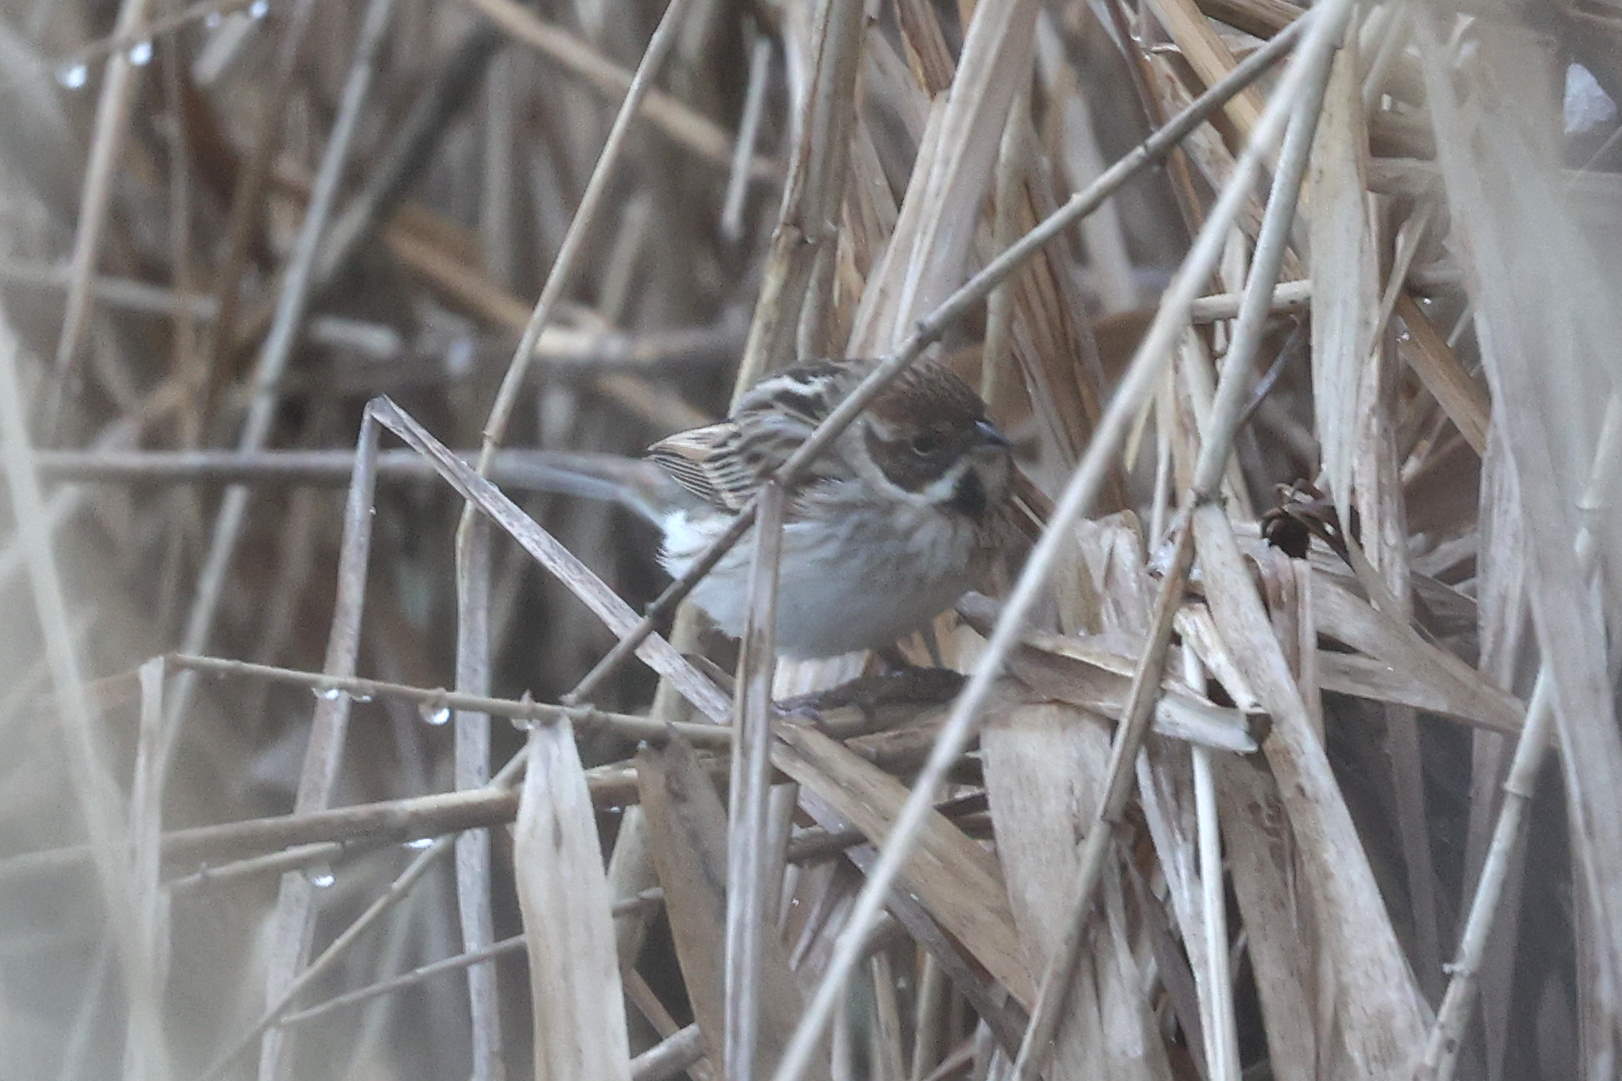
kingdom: Animalia
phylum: Chordata
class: Aves
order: Passeriformes
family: Emberizidae
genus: Emberiza
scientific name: Emberiza schoeniclus
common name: Reed bunting
